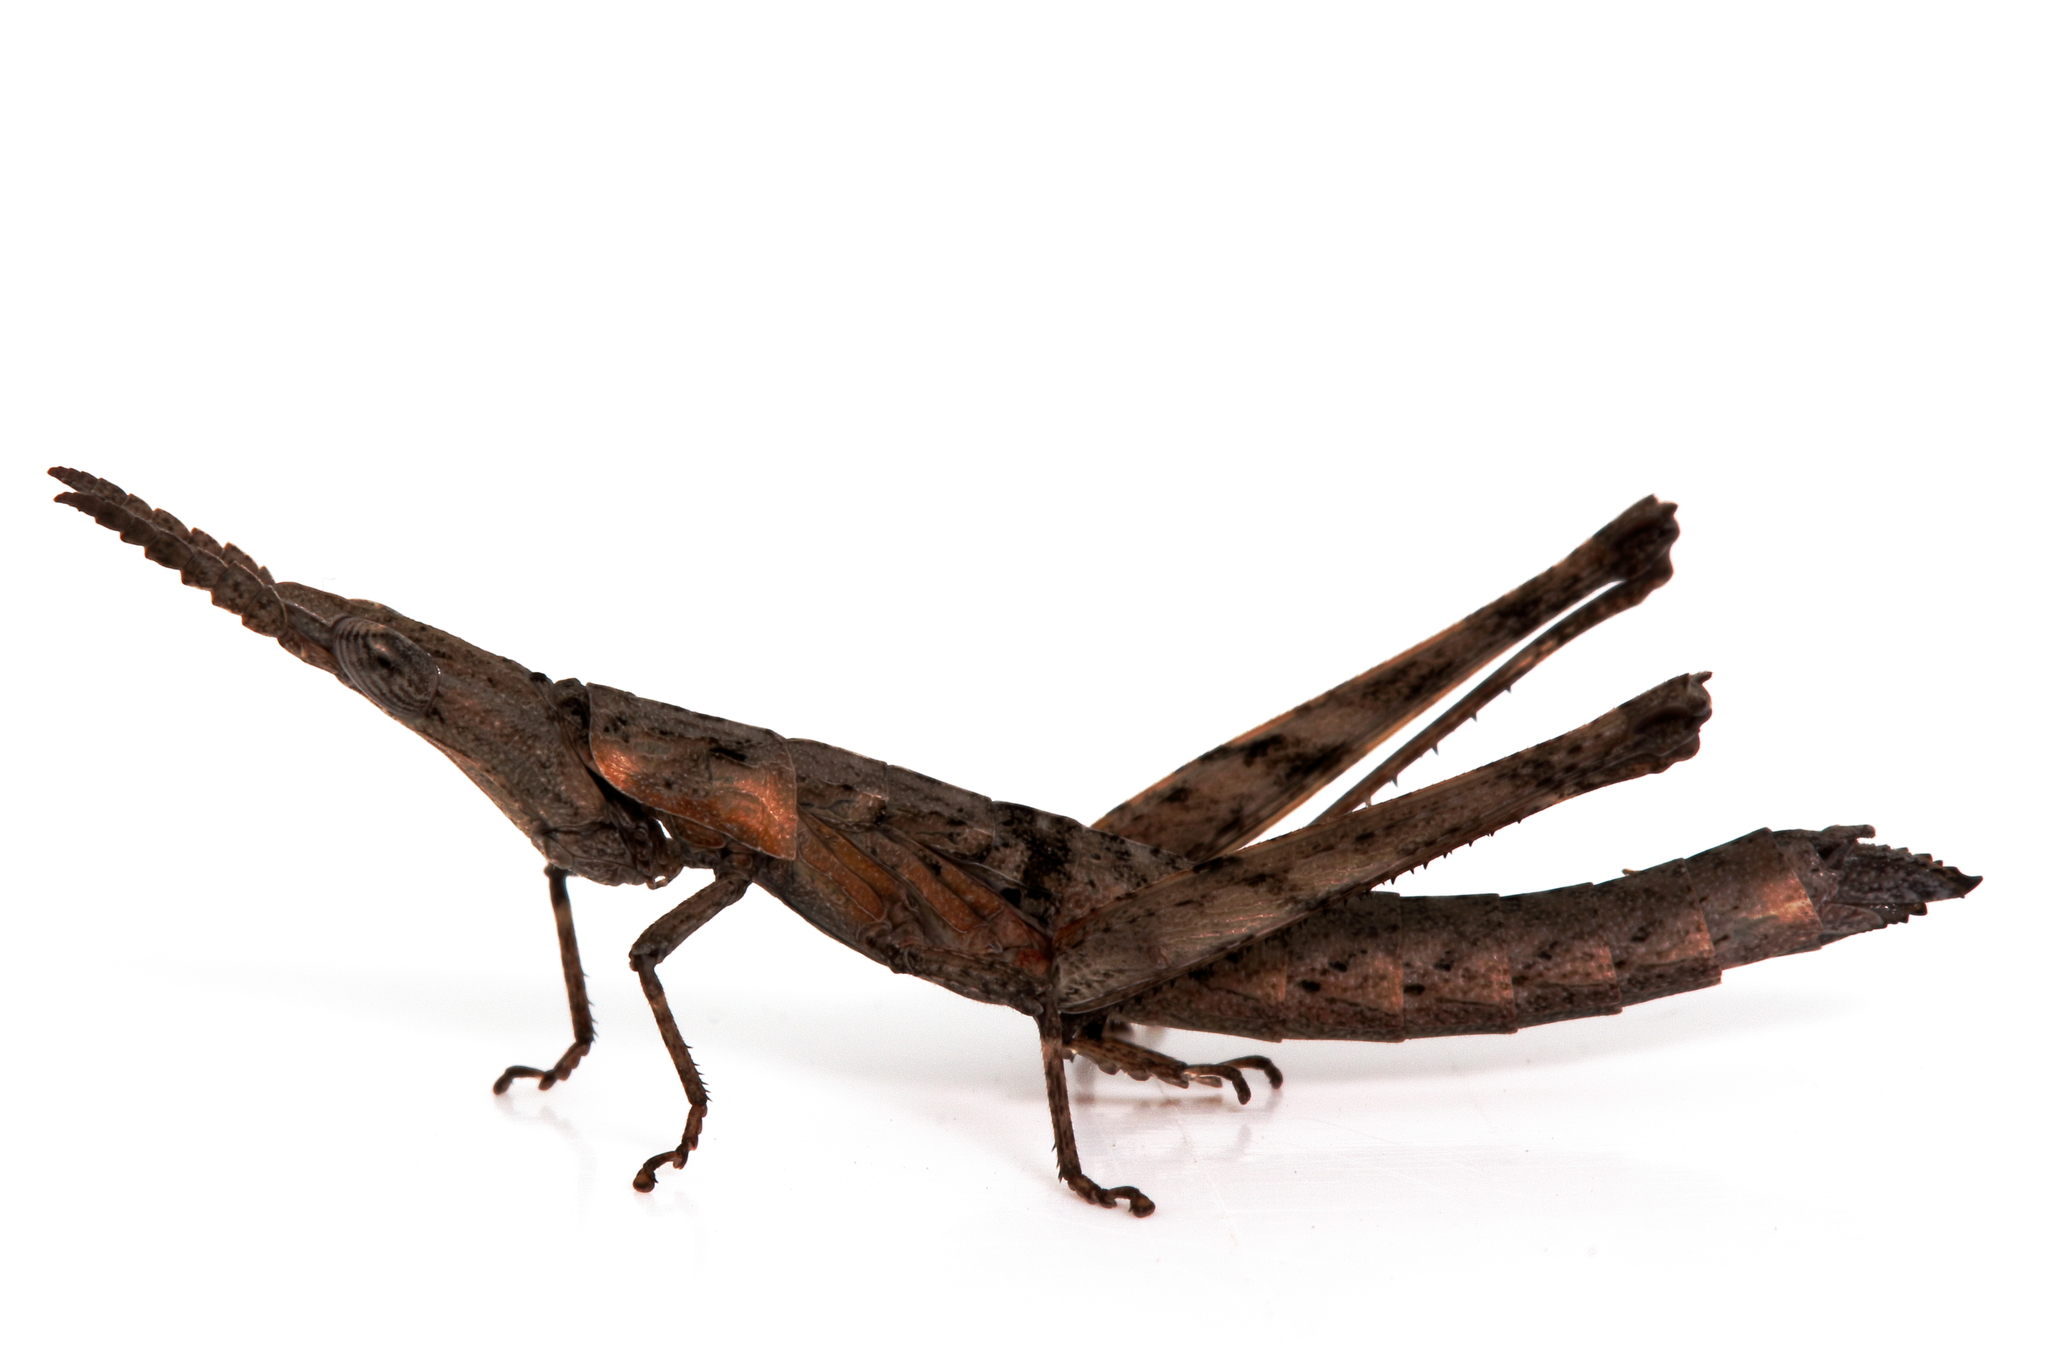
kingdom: Animalia
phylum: Arthropoda
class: Insecta
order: Orthoptera
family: Morabidae
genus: Vandiemenella
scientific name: Vandiemenella viatica
